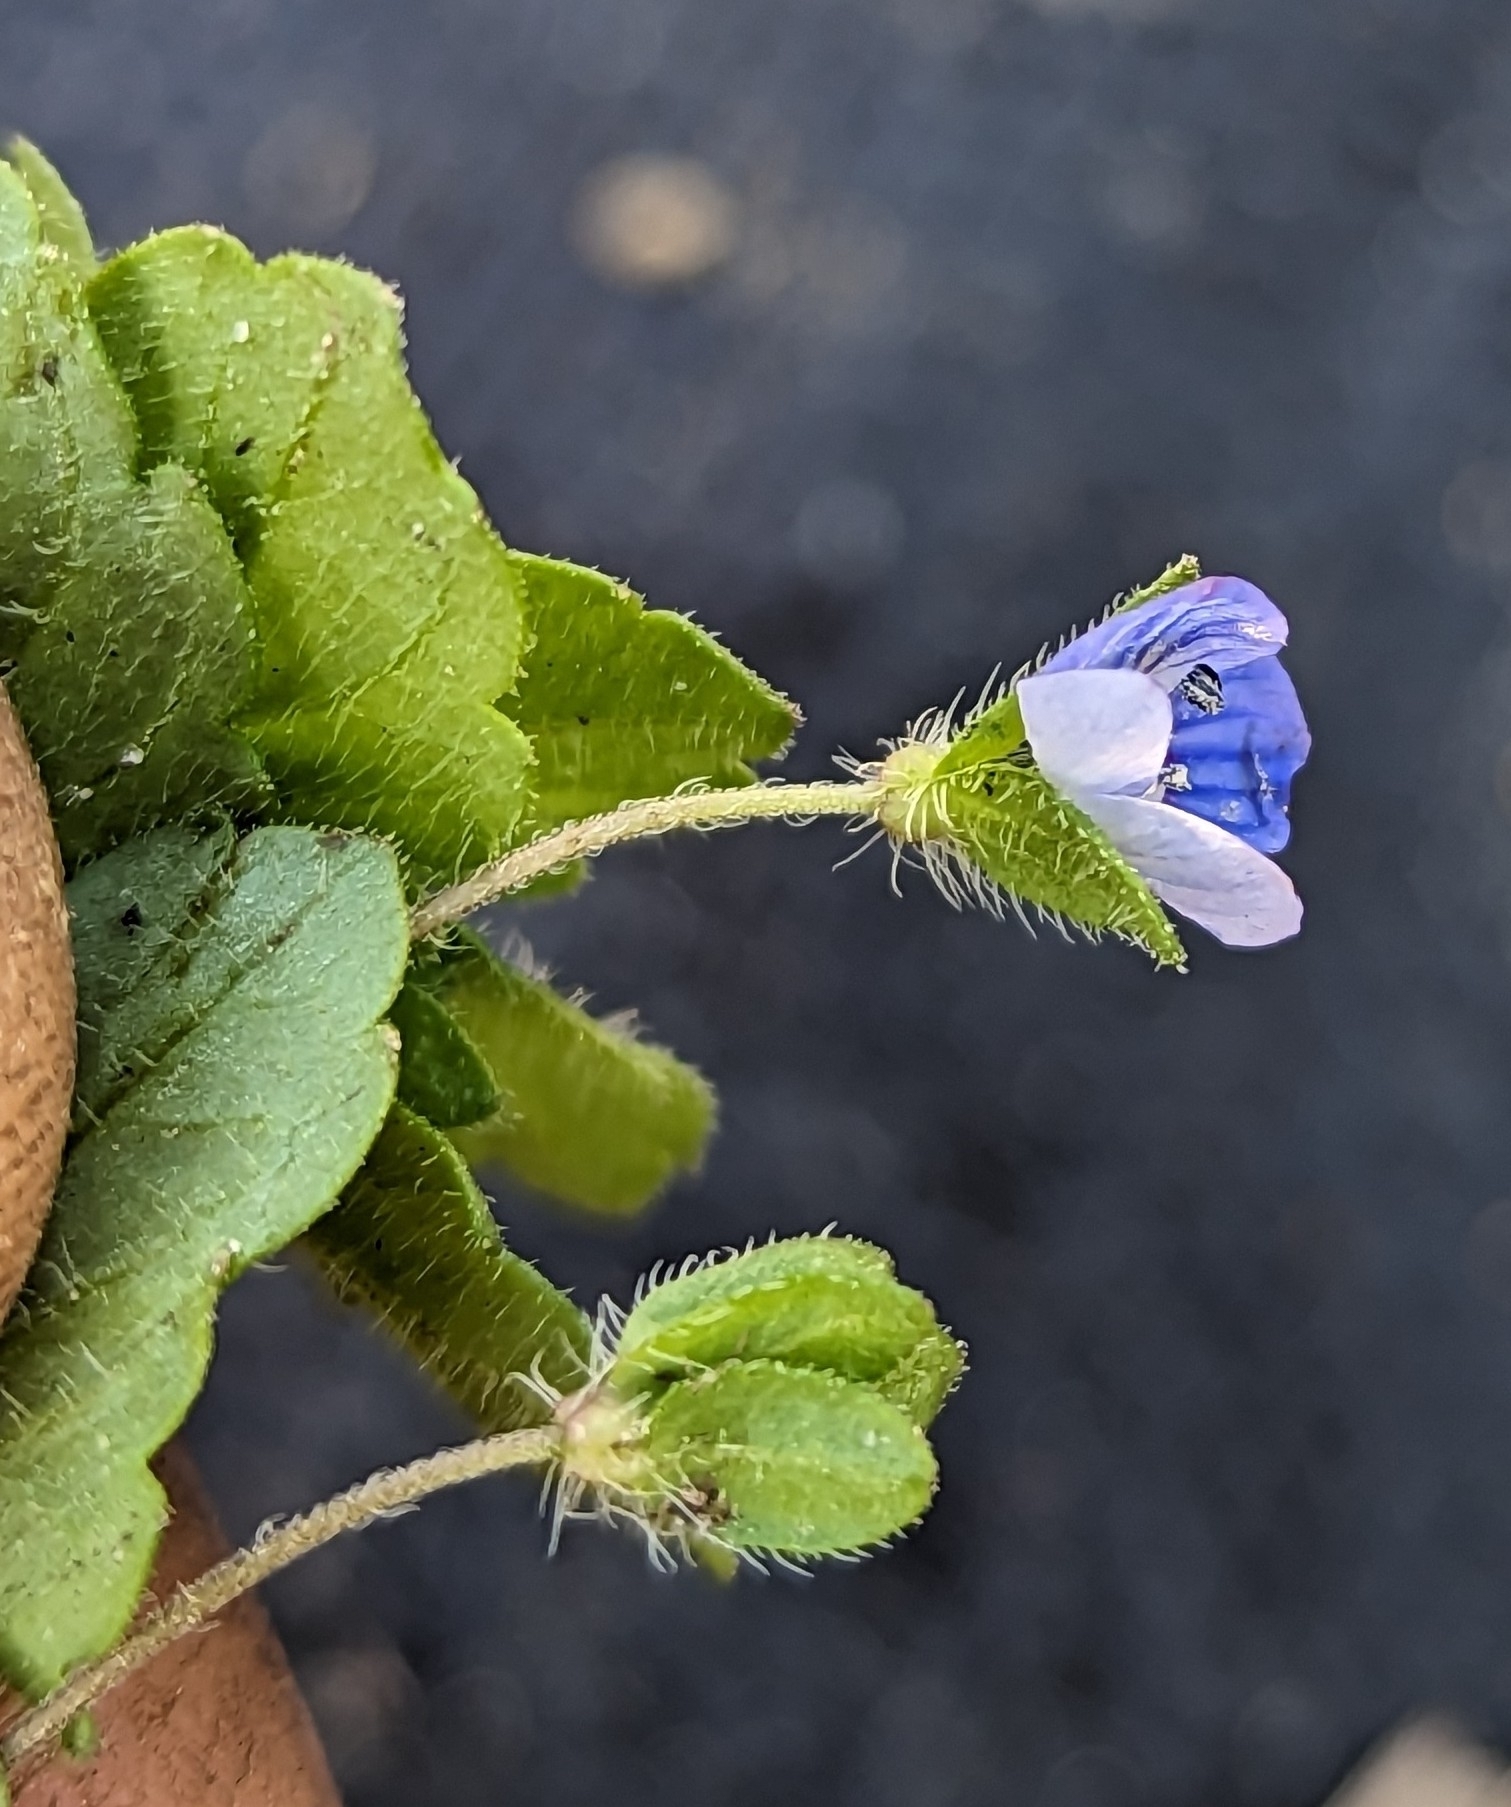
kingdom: Plantae
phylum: Tracheophyta
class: Magnoliopsida
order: Lamiales
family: Plantaginaceae
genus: Veronica
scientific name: Veronica persica
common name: Common field-speedwell
